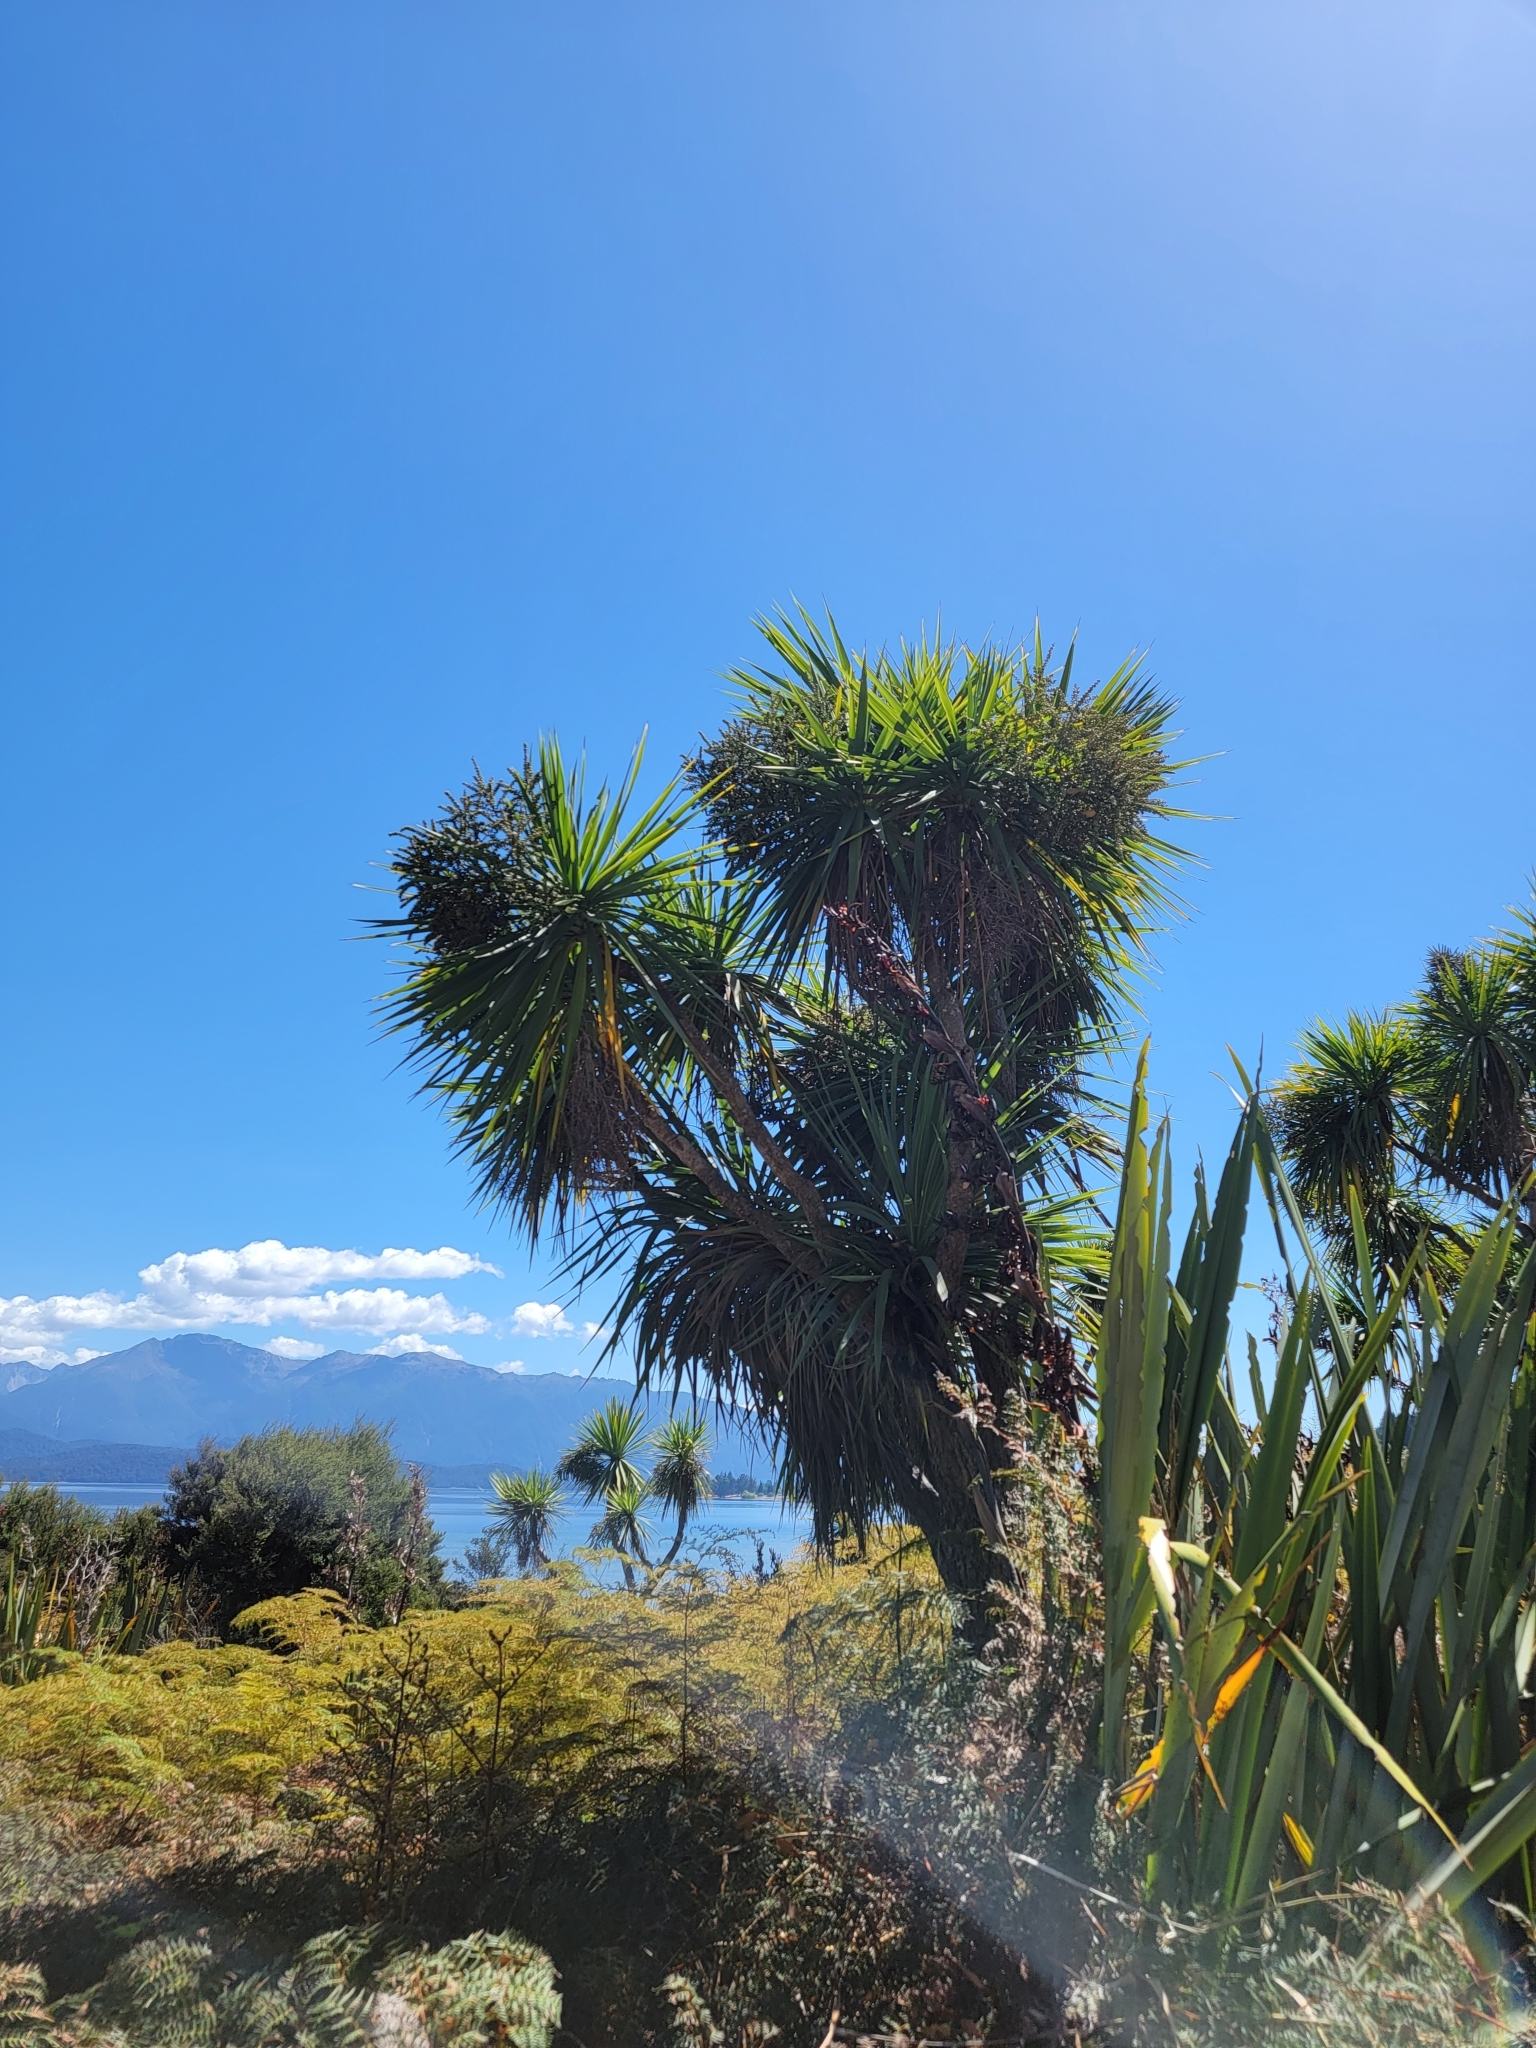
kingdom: Plantae
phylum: Tracheophyta
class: Liliopsida
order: Asparagales
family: Asparagaceae
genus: Cordyline
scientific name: Cordyline australis
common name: Cabbage-palm
